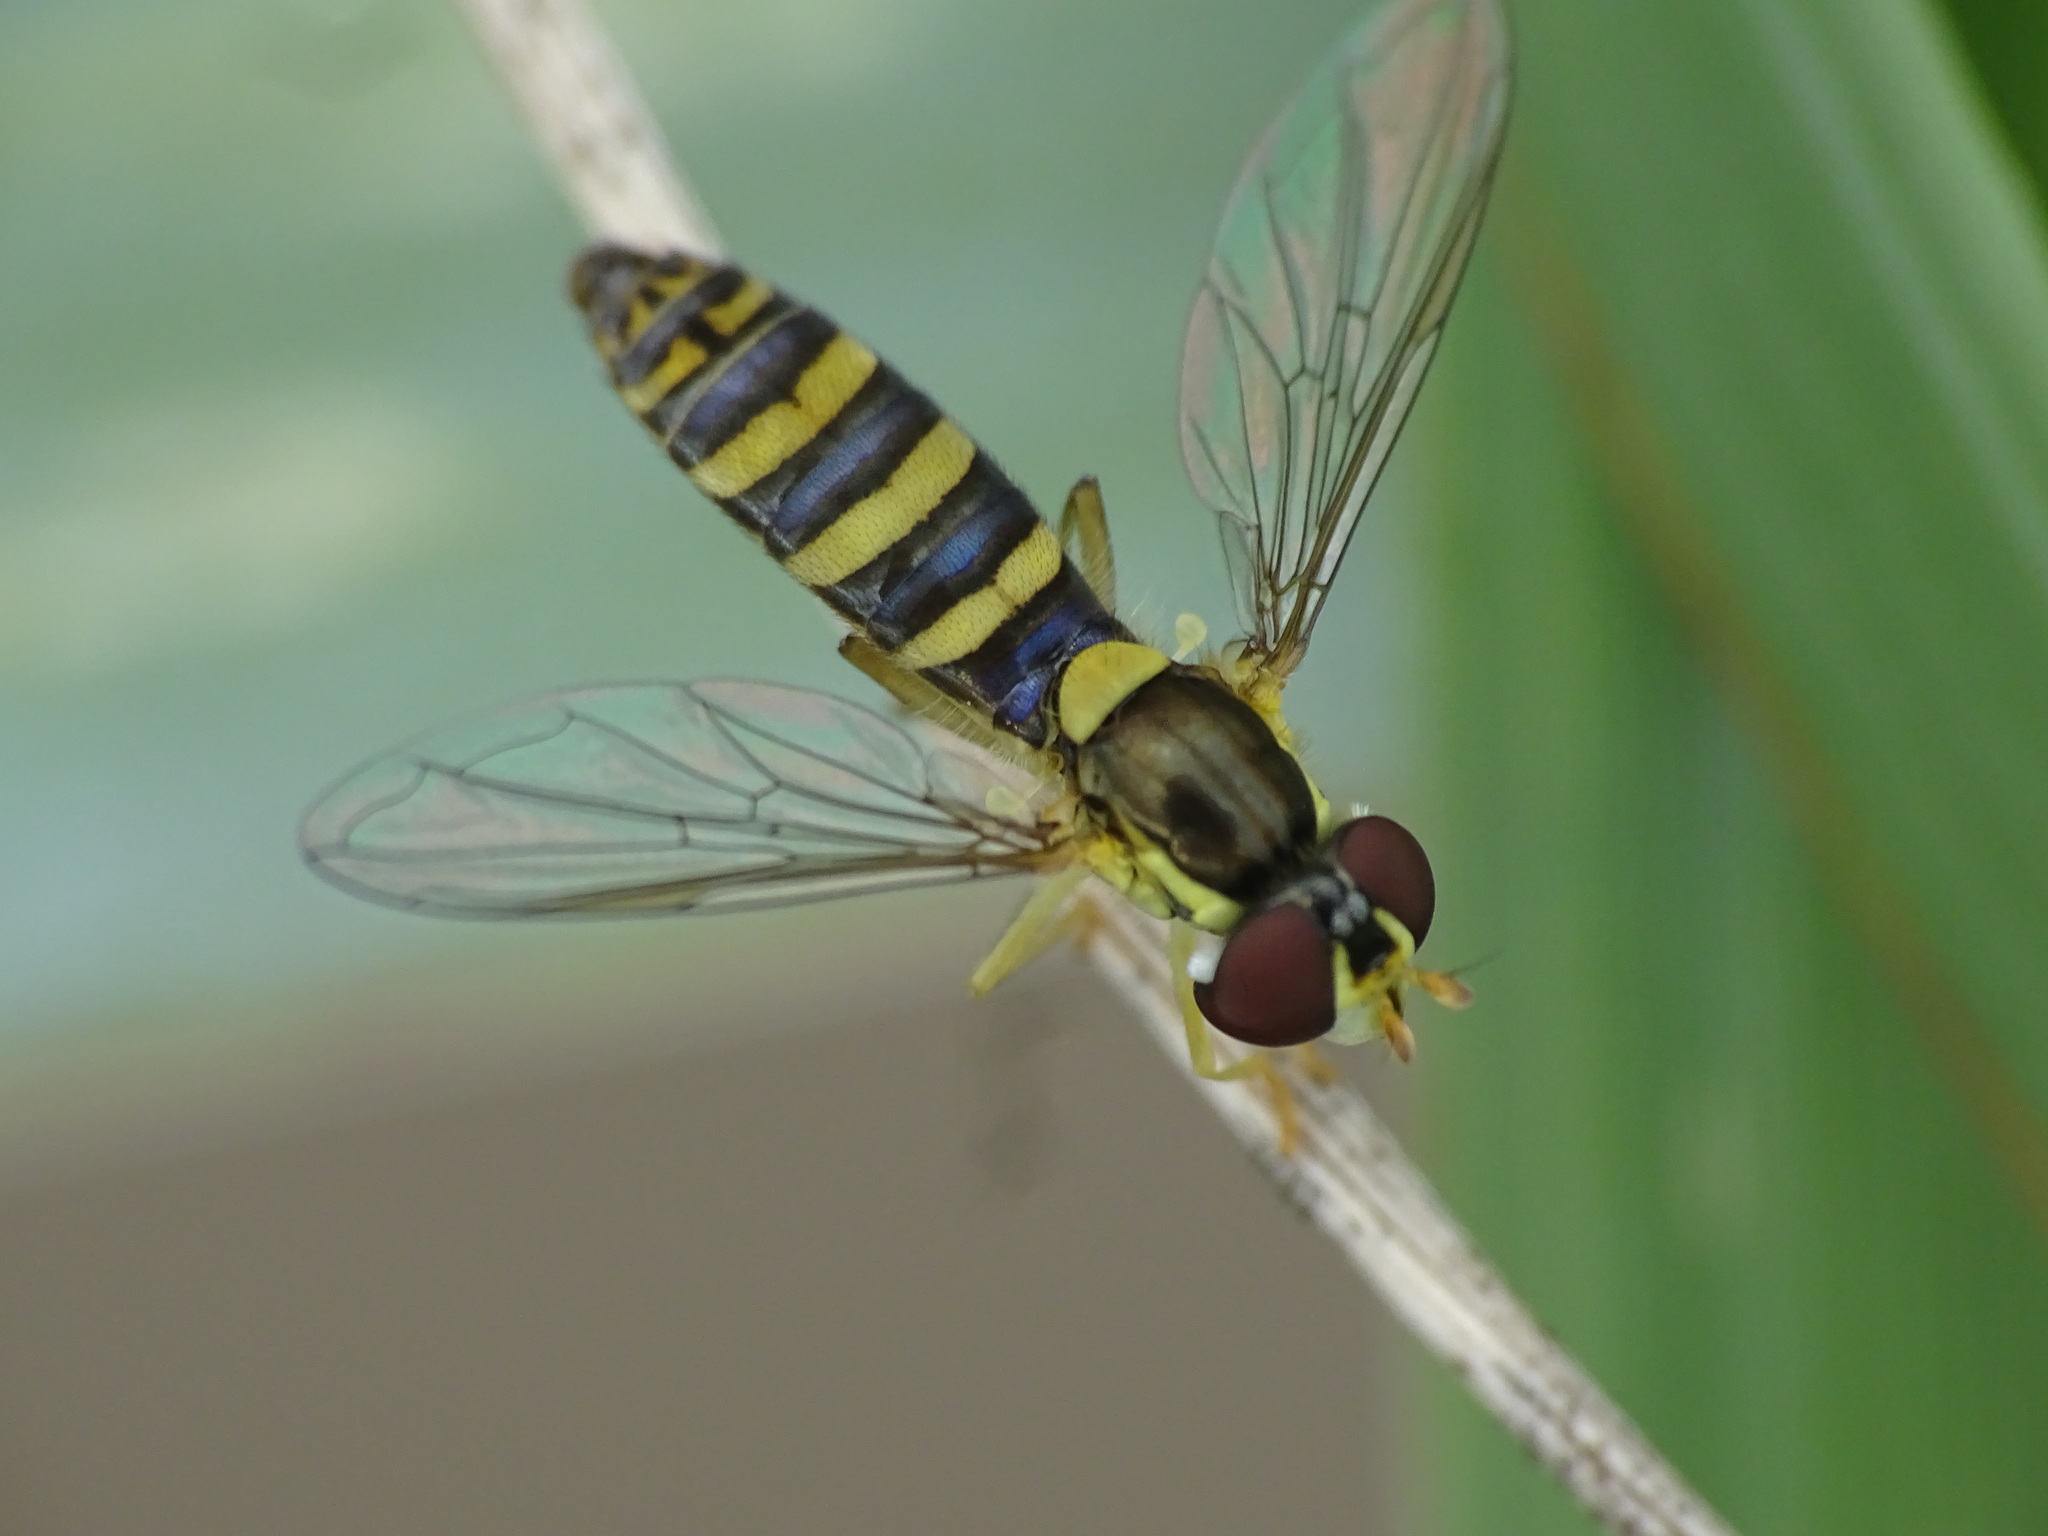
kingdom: Animalia
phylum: Arthropoda
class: Insecta
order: Diptera
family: Syrphidae
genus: Sphaerophoria
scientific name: Sphaerophoria
